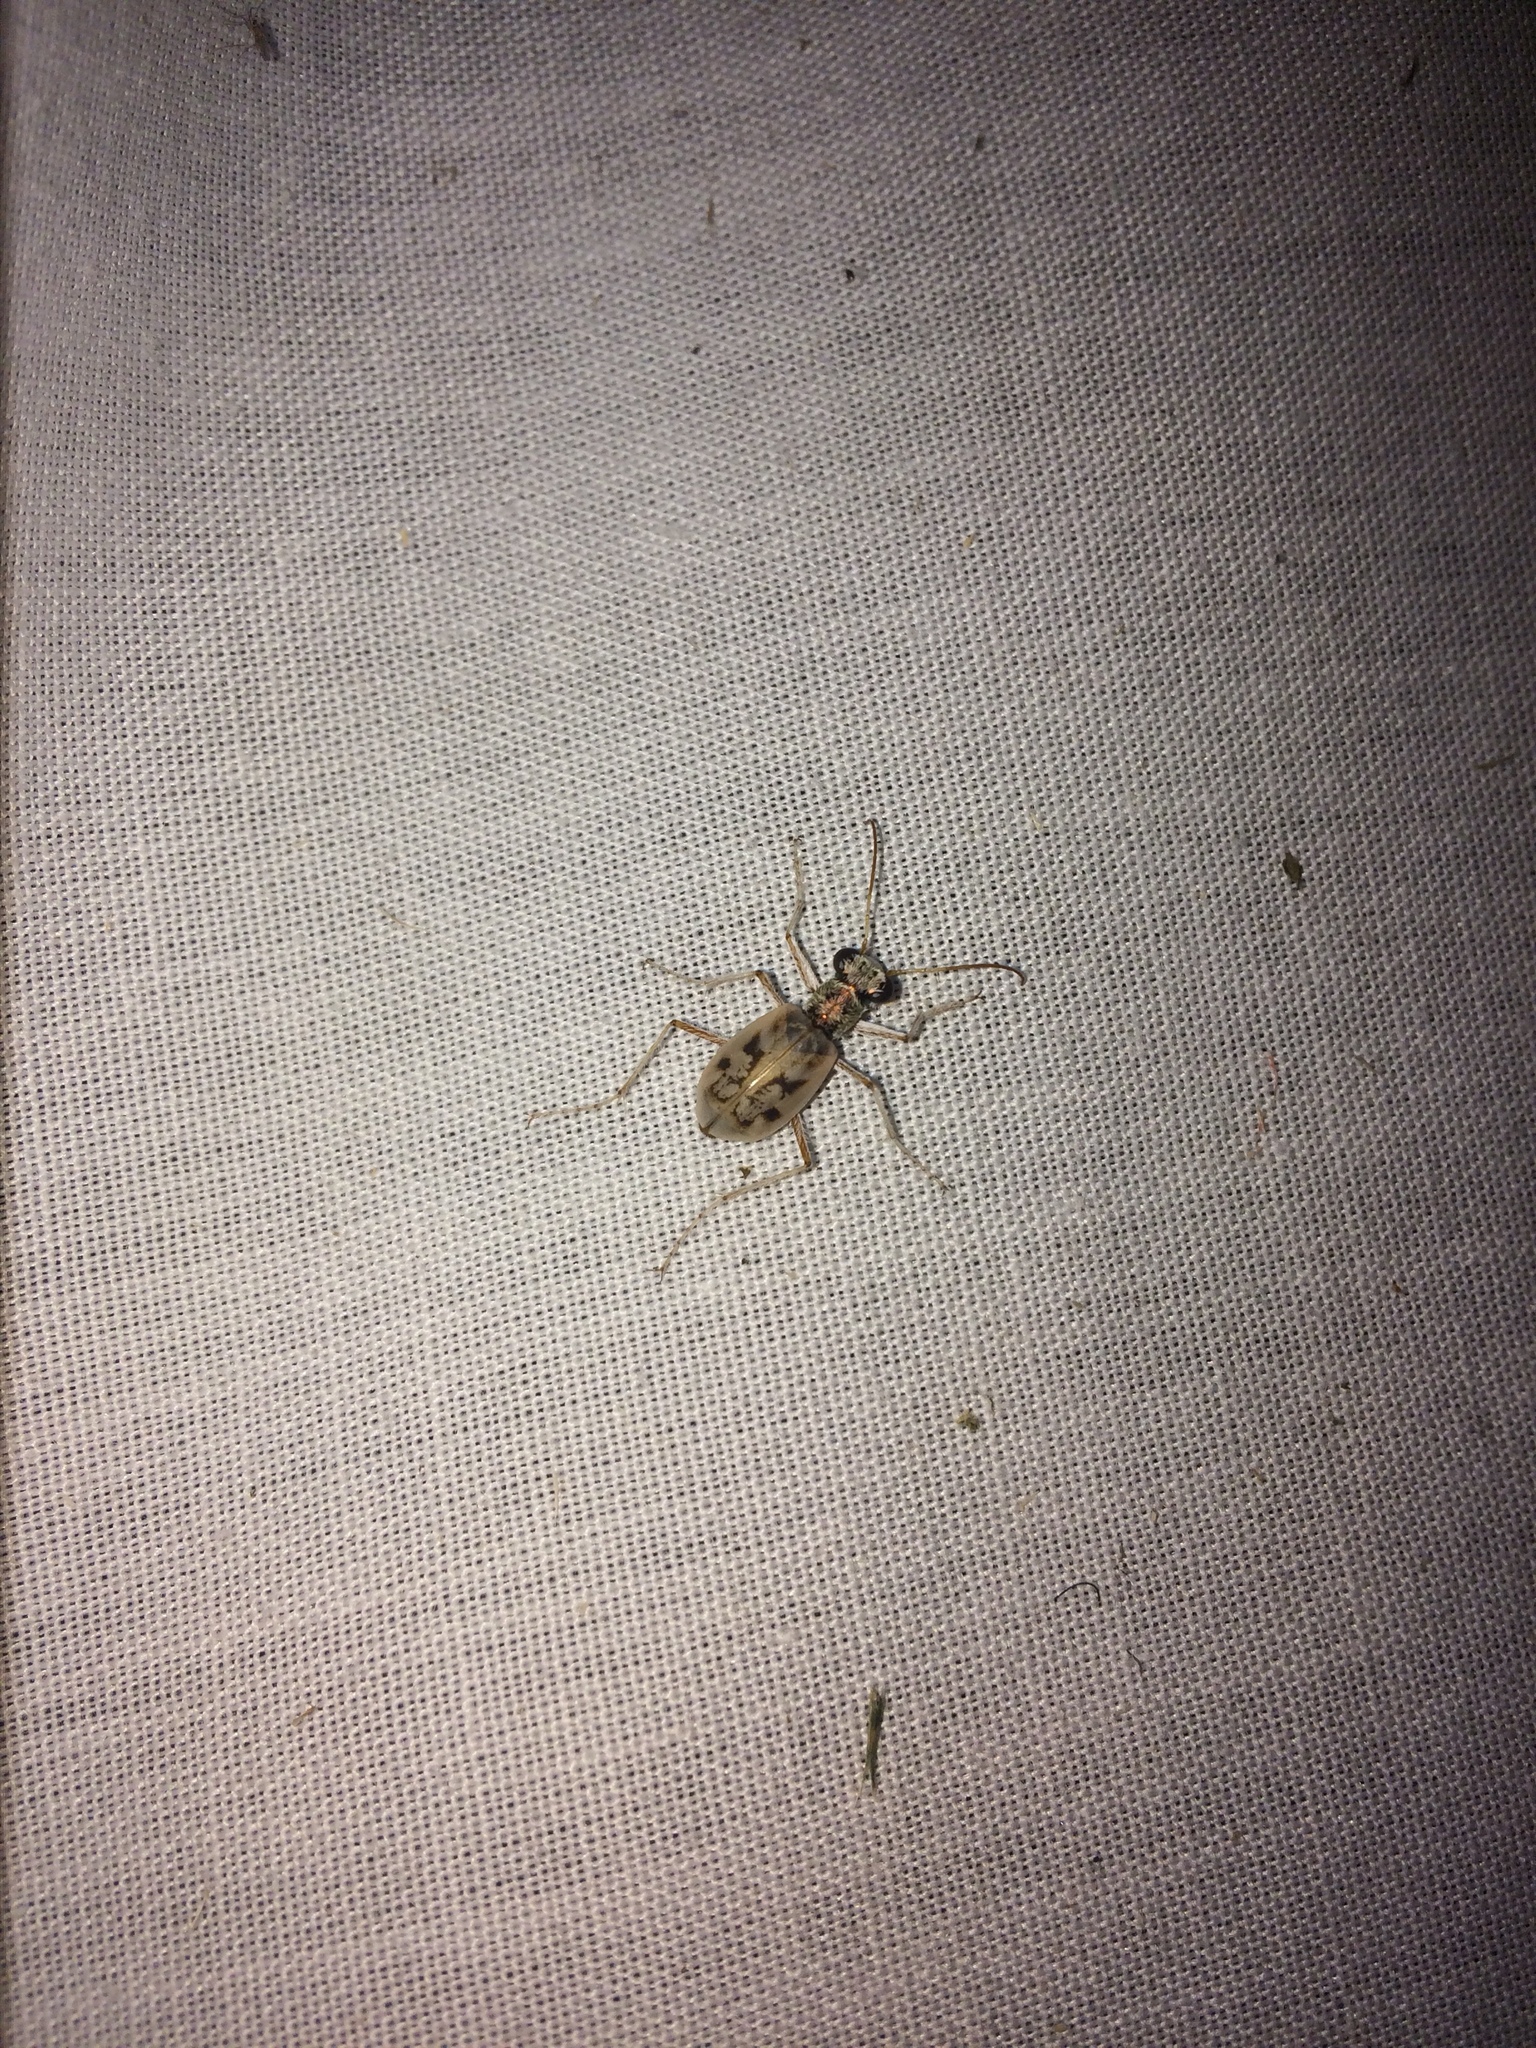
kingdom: Animalia
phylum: Arthropoda
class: Insecta
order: Coleoptera
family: Carabidae
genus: Ellipsoptera
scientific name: Ellipsoptera lepida
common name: Ghost tiger beetle
